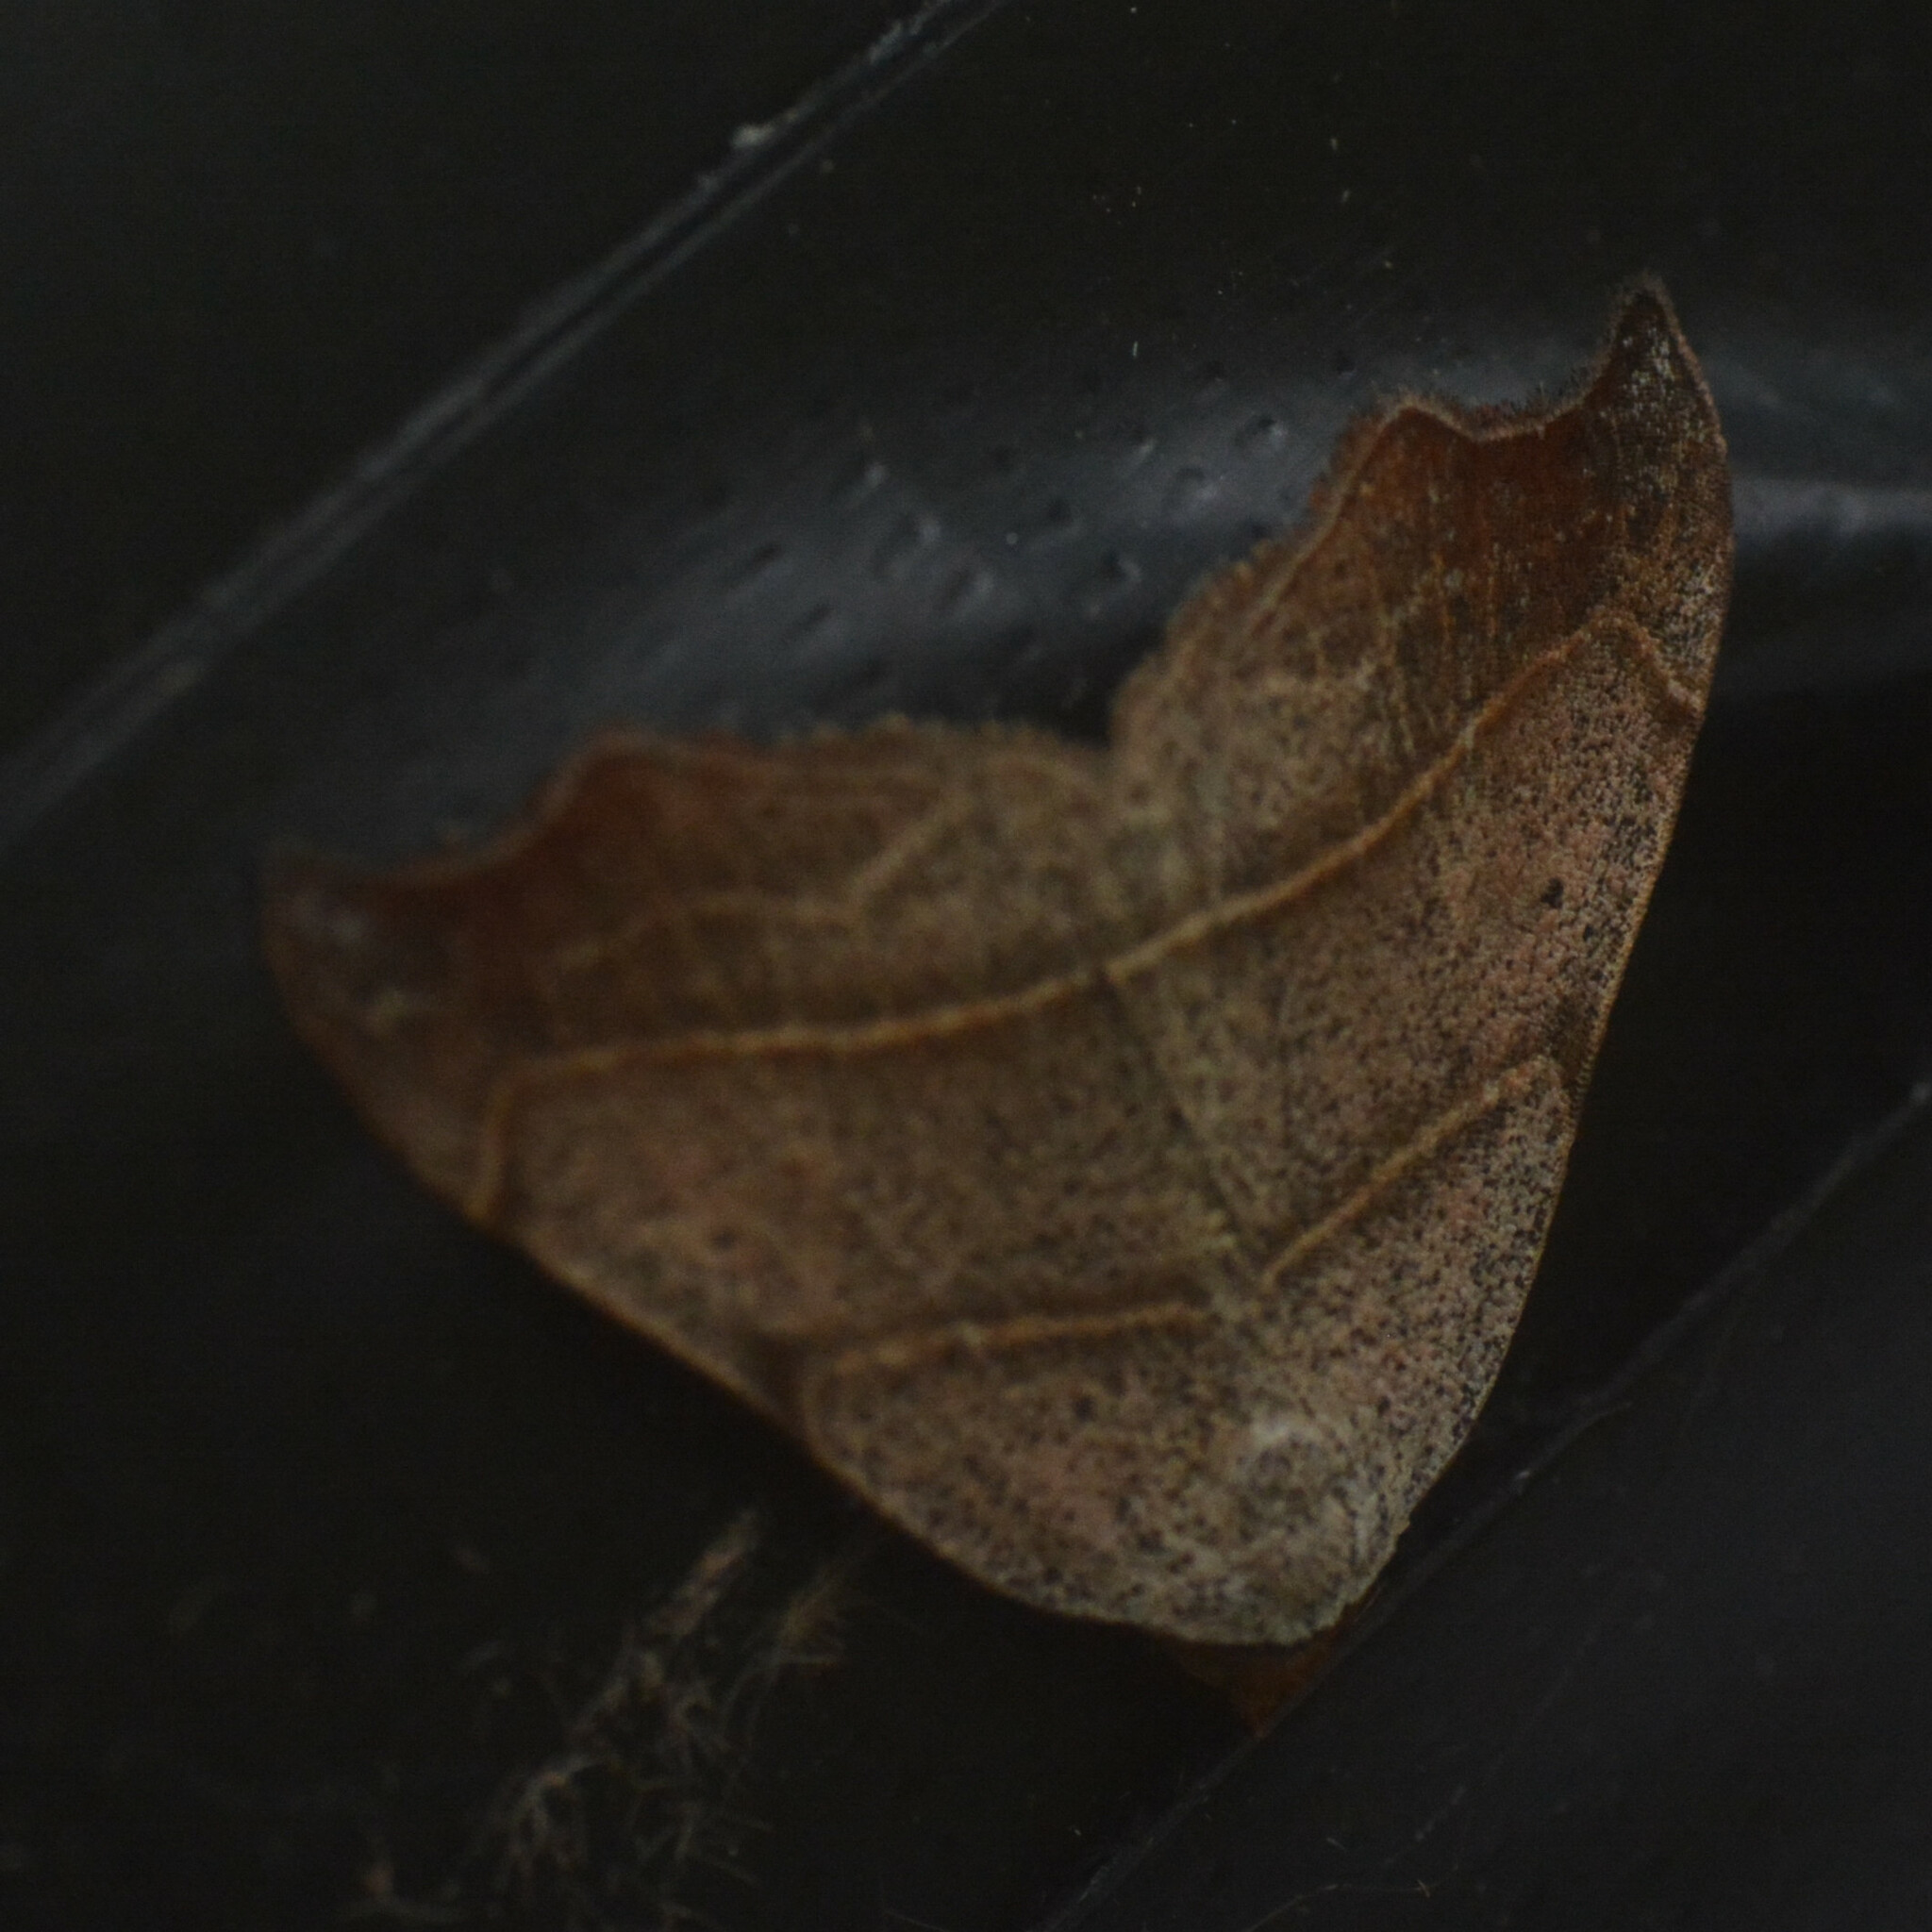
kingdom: Animalia
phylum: Arthropoda
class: Insecta
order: Lepidoptera
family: Erebidae
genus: Laspeyria
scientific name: Laspeyria flexula
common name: Beautiful hook-tip
